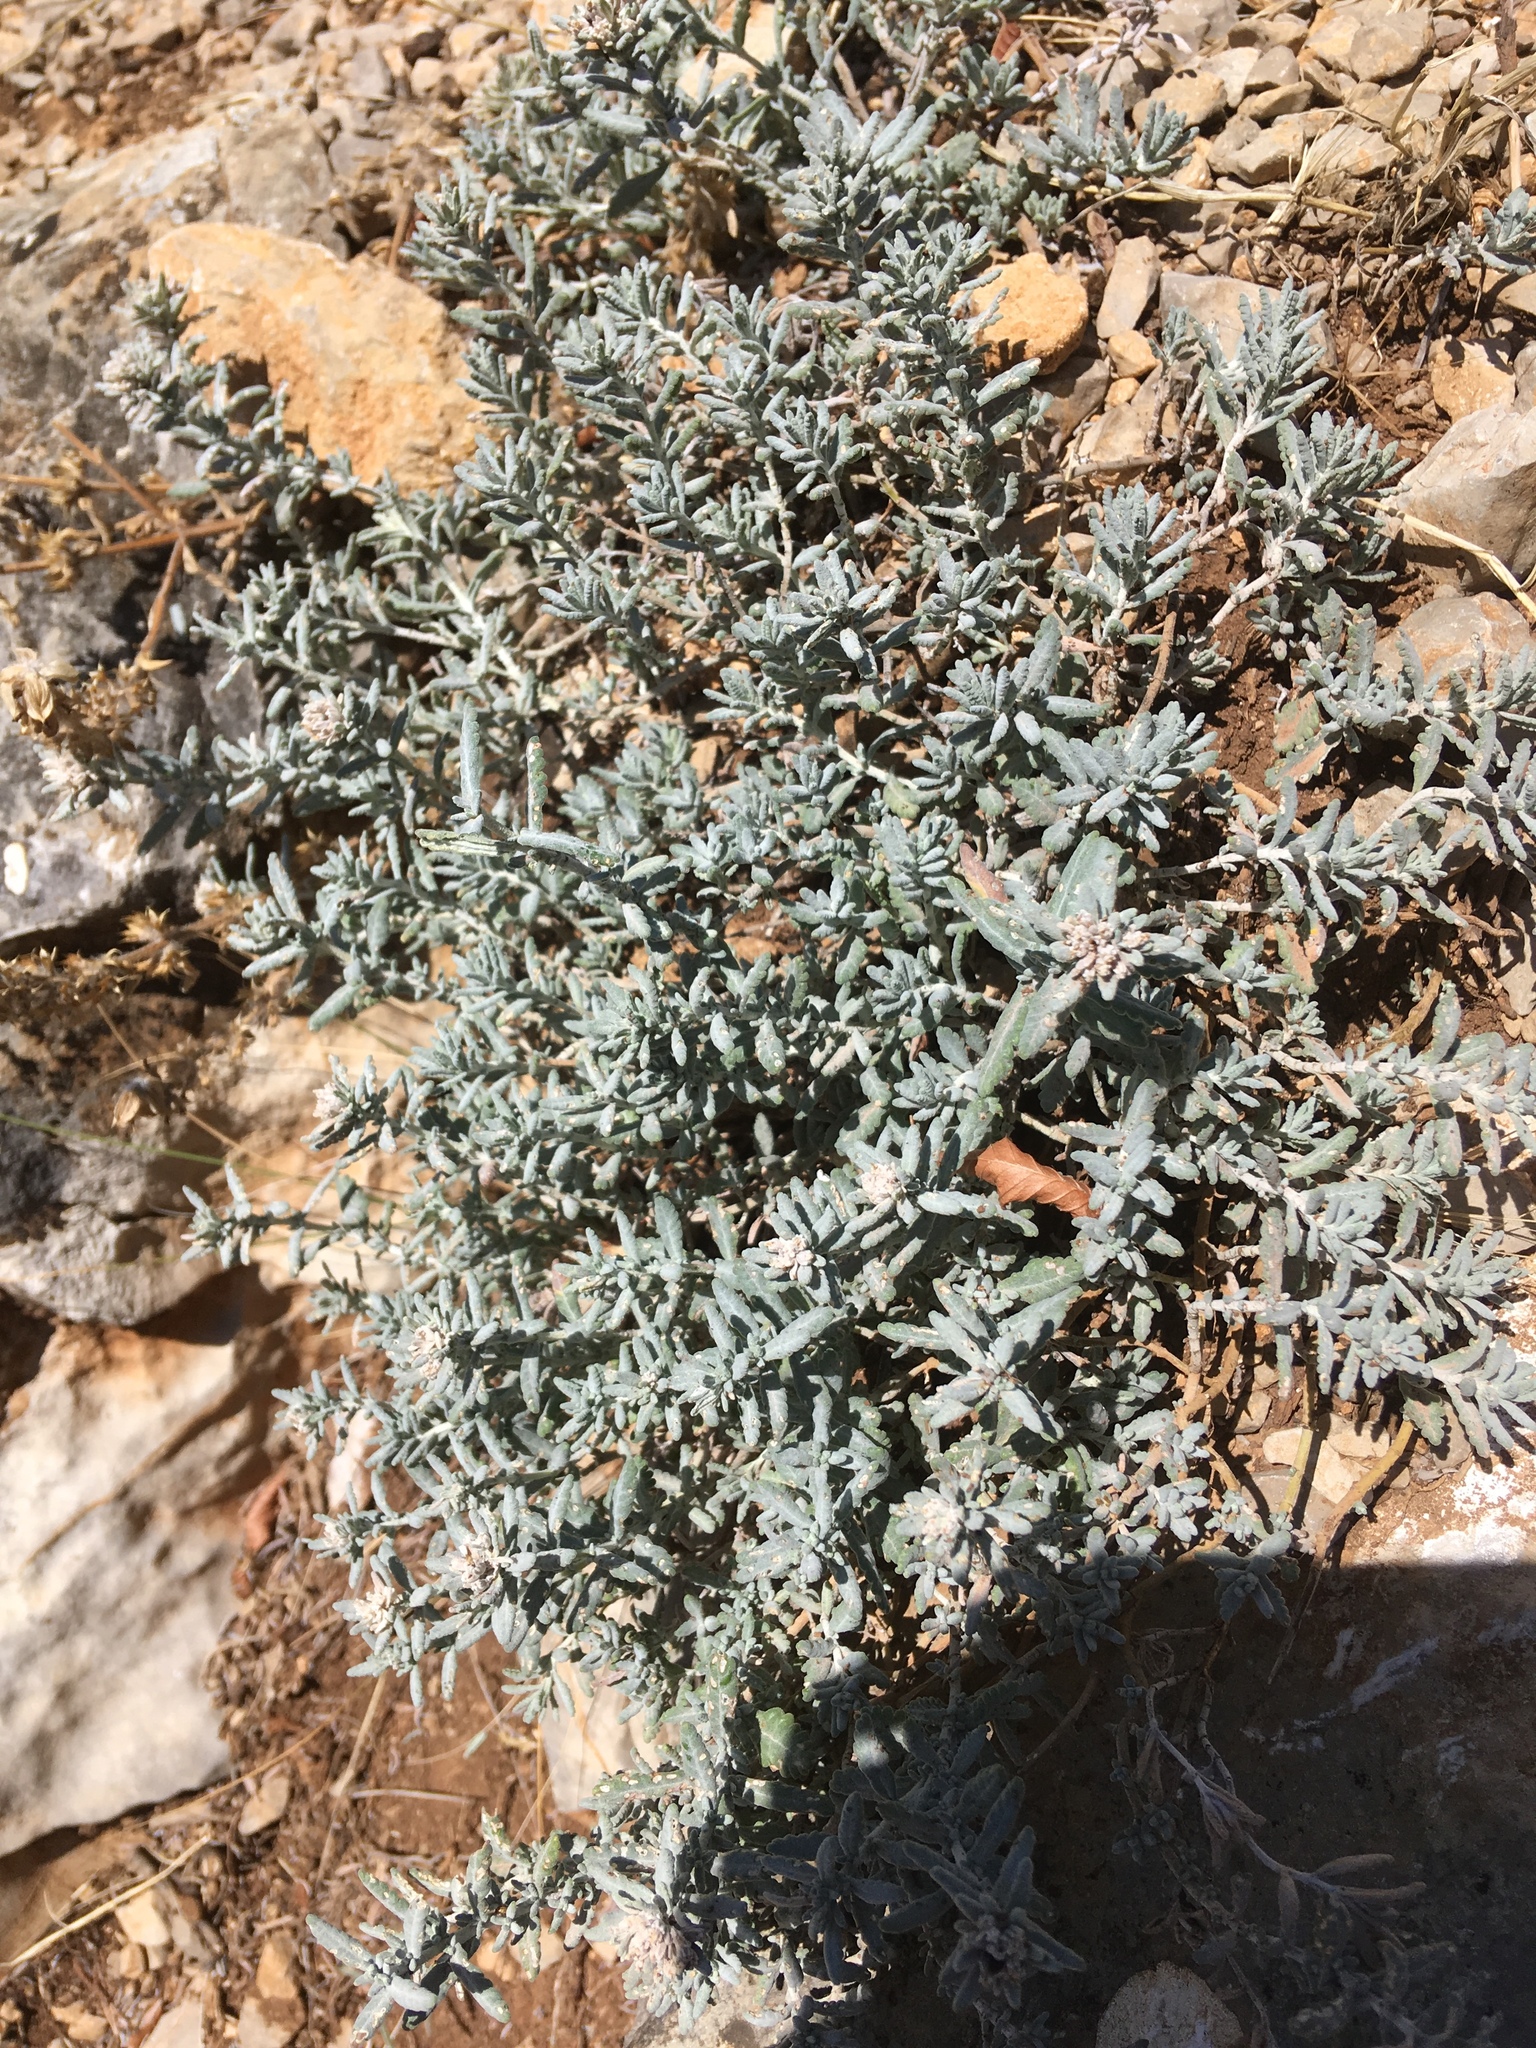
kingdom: Plantae
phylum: Tracheophyta
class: Magnoliopsida
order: Lamiales
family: Lamiaceae
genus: Teucrium
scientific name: Teucrium polium
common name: Poley
